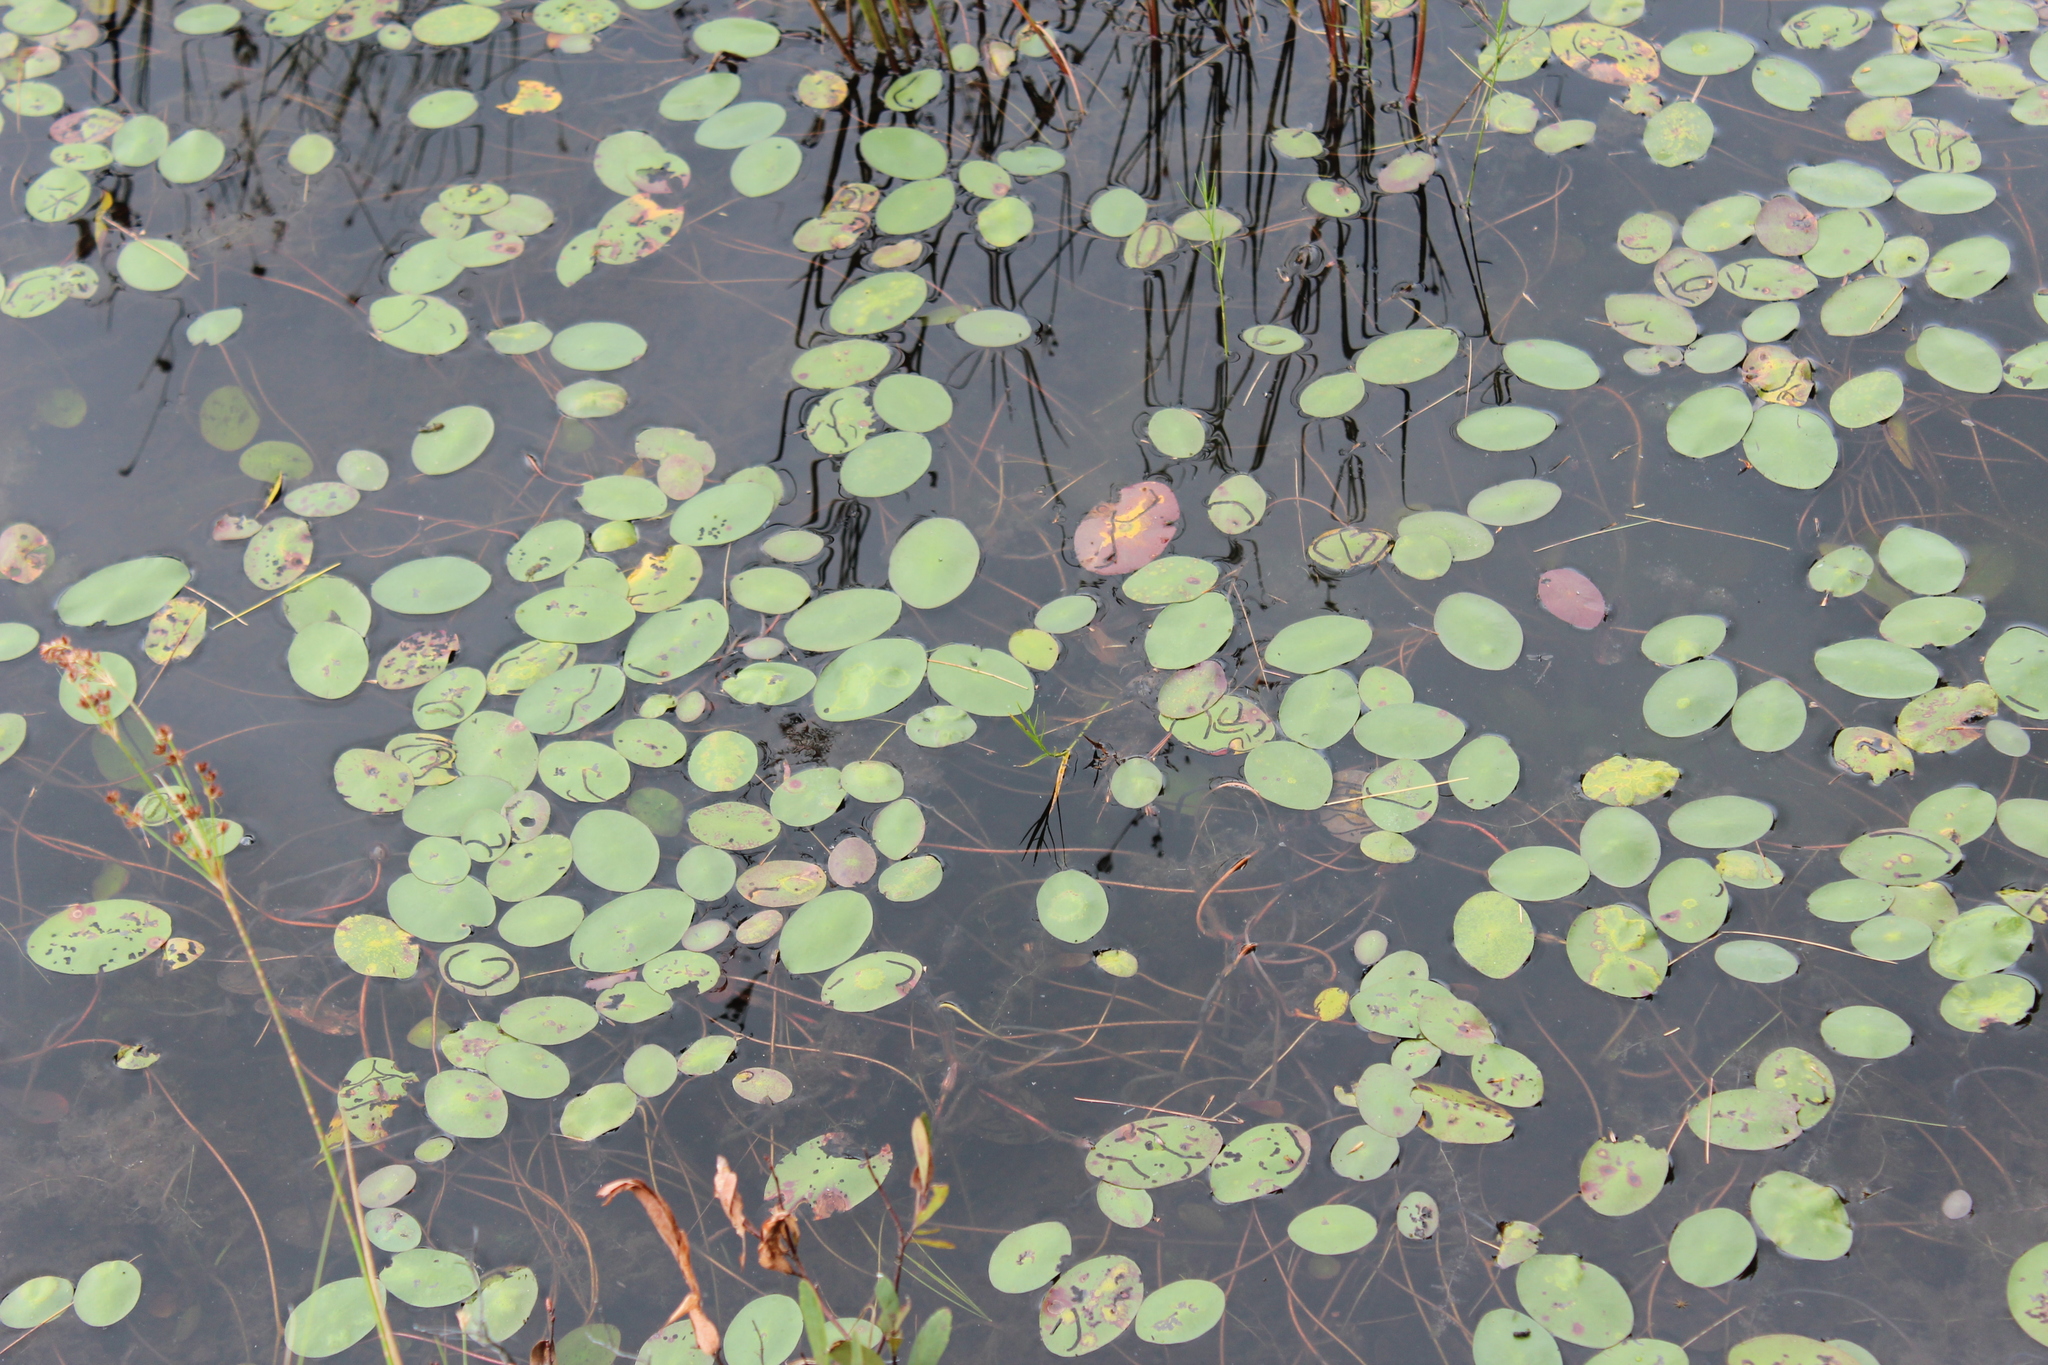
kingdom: Plantae
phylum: Tracheophyta
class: Magnoliopsida
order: Nymphaeales
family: Cabombaceae
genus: Brasenia
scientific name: Brasenia schreberi
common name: Water-shield
